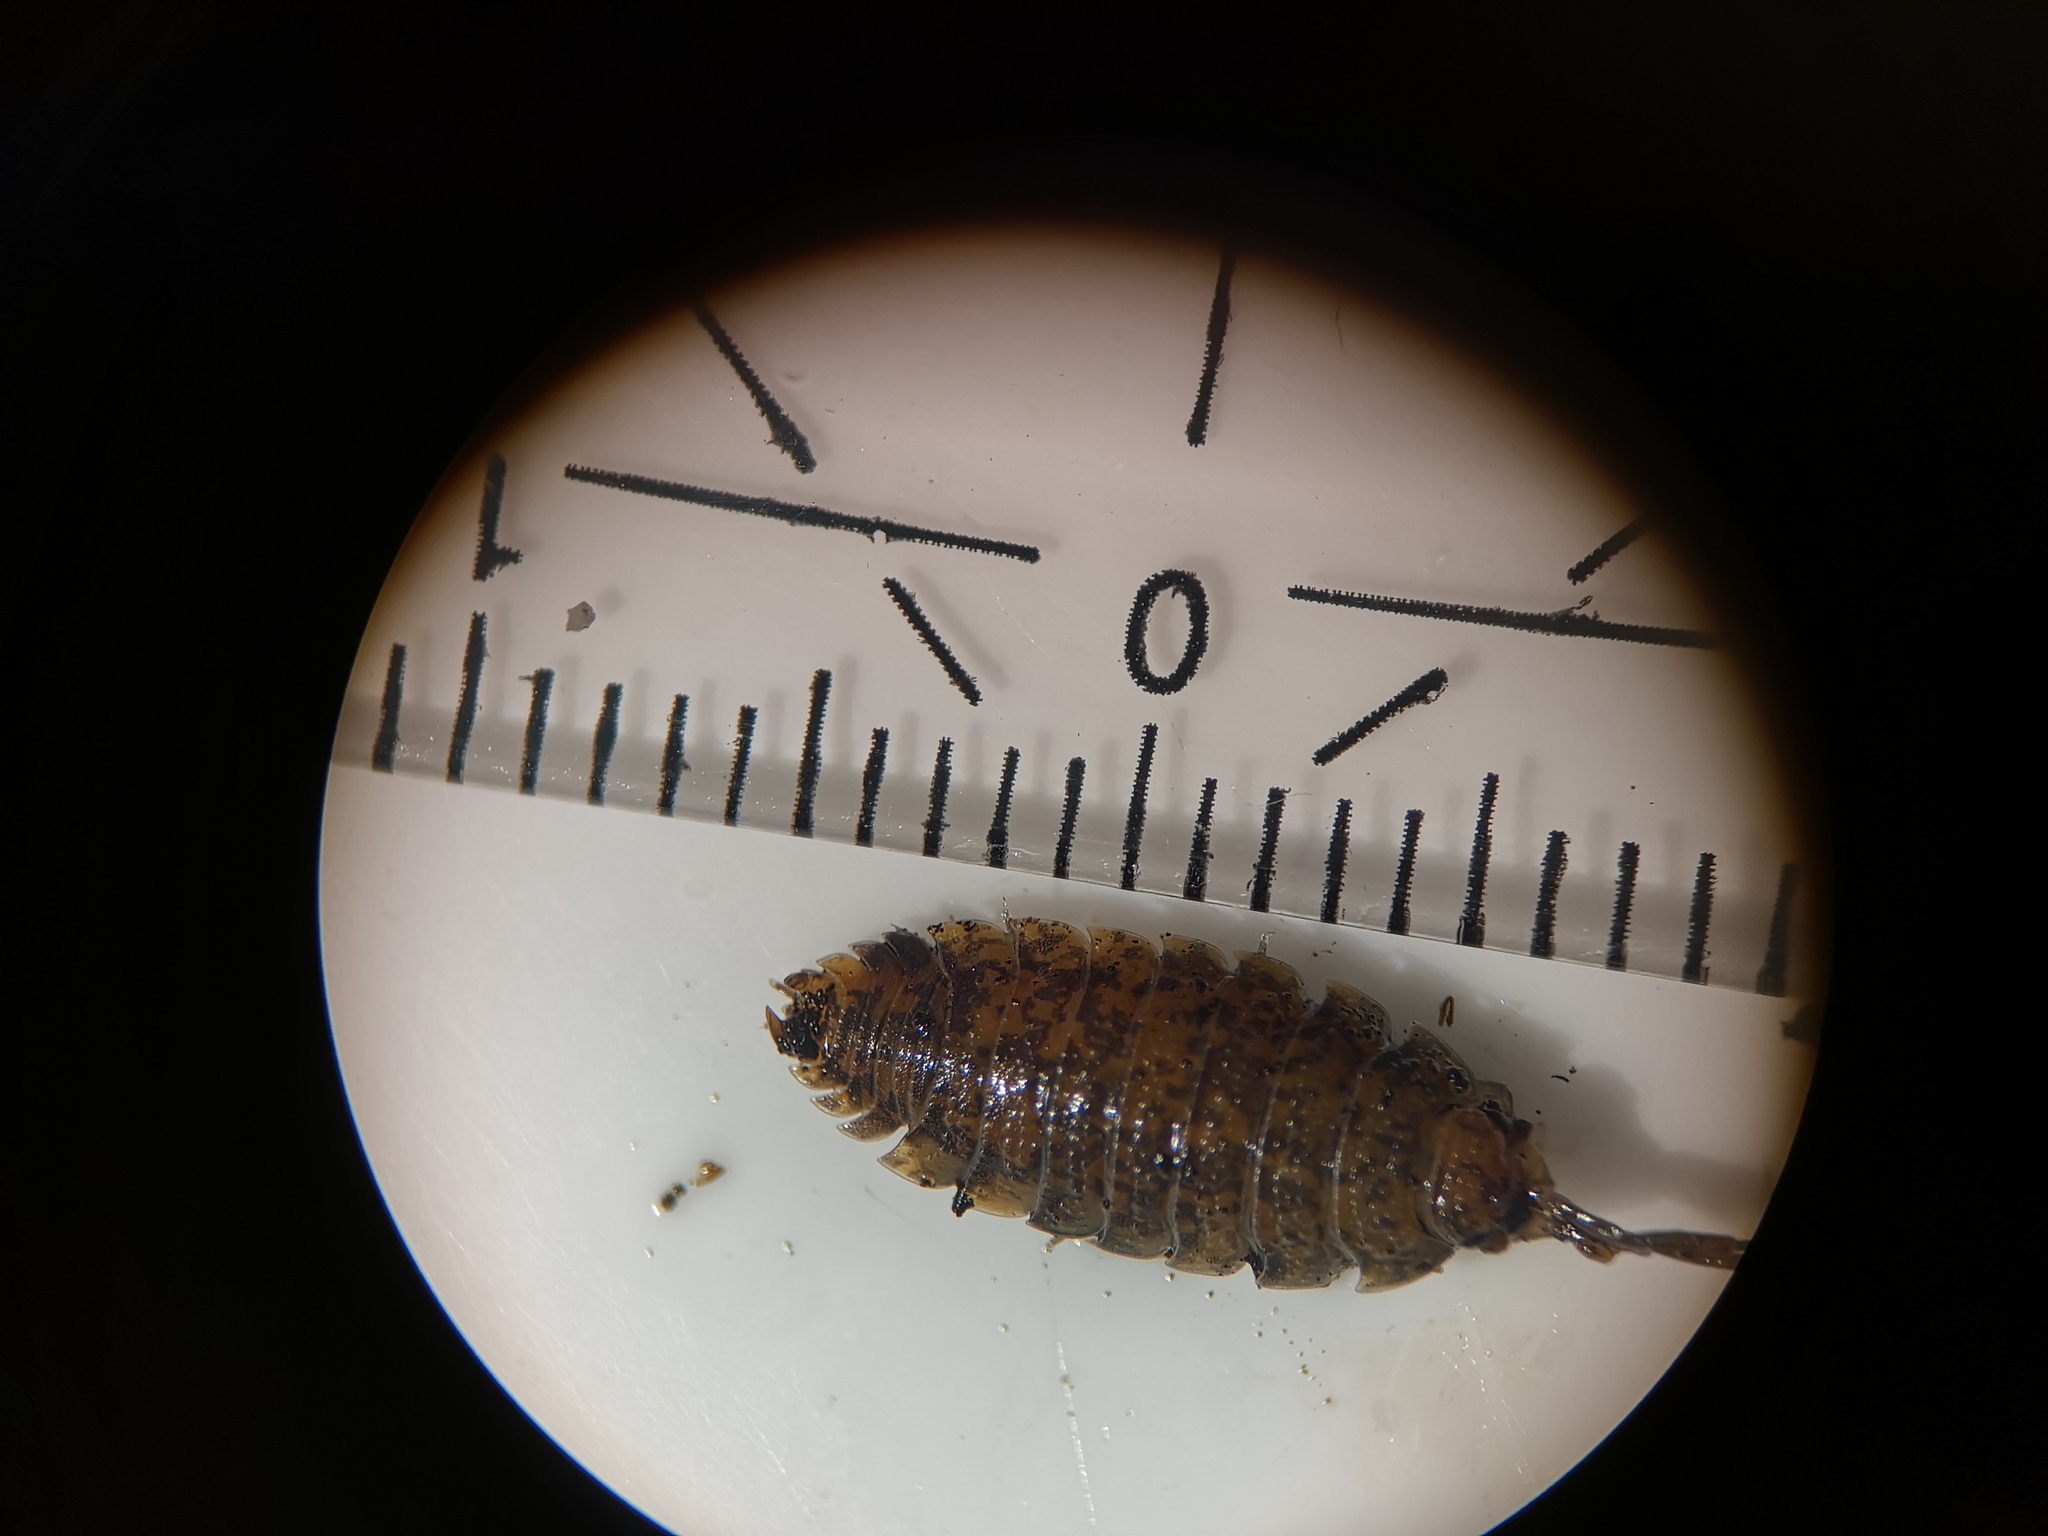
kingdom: Animalia
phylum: Arthropoda
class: Malacostraca
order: Isopoda
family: Porcellionidae
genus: Porcellio
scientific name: Porcellio scaber
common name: Common rough woodlouse
